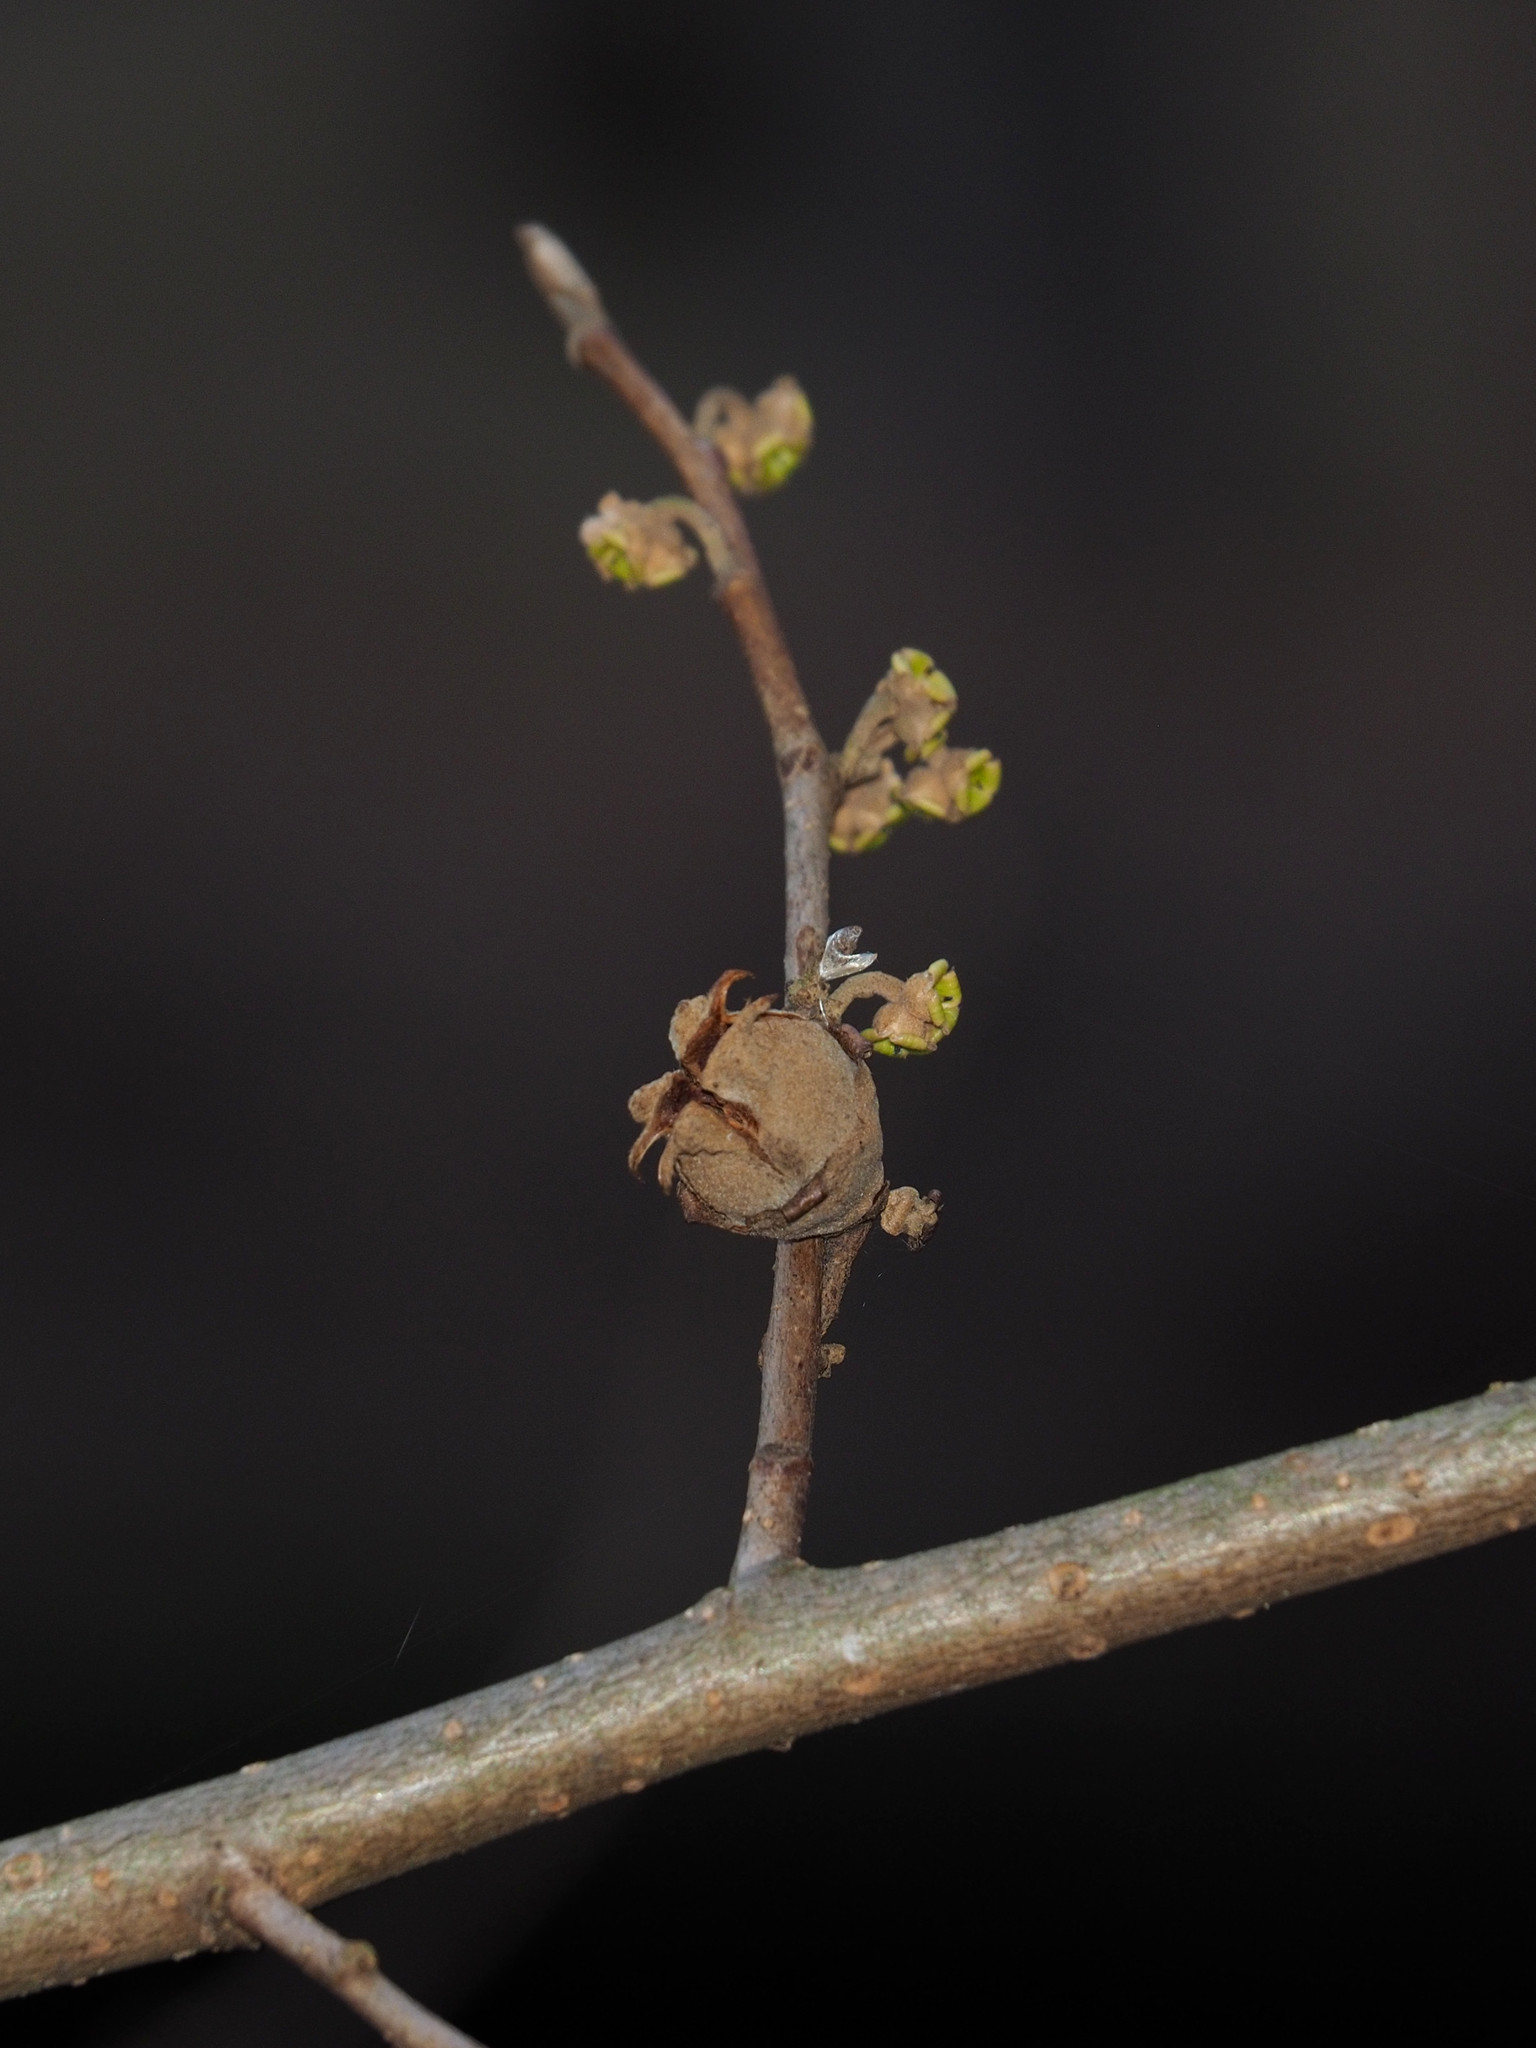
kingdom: Plantae
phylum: Tracheophyta
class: Magnoliopsida
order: Saxifragales
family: Hamamelidaceae
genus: Hamamelis
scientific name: Hamamelis virginiana
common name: Witch-hazel
